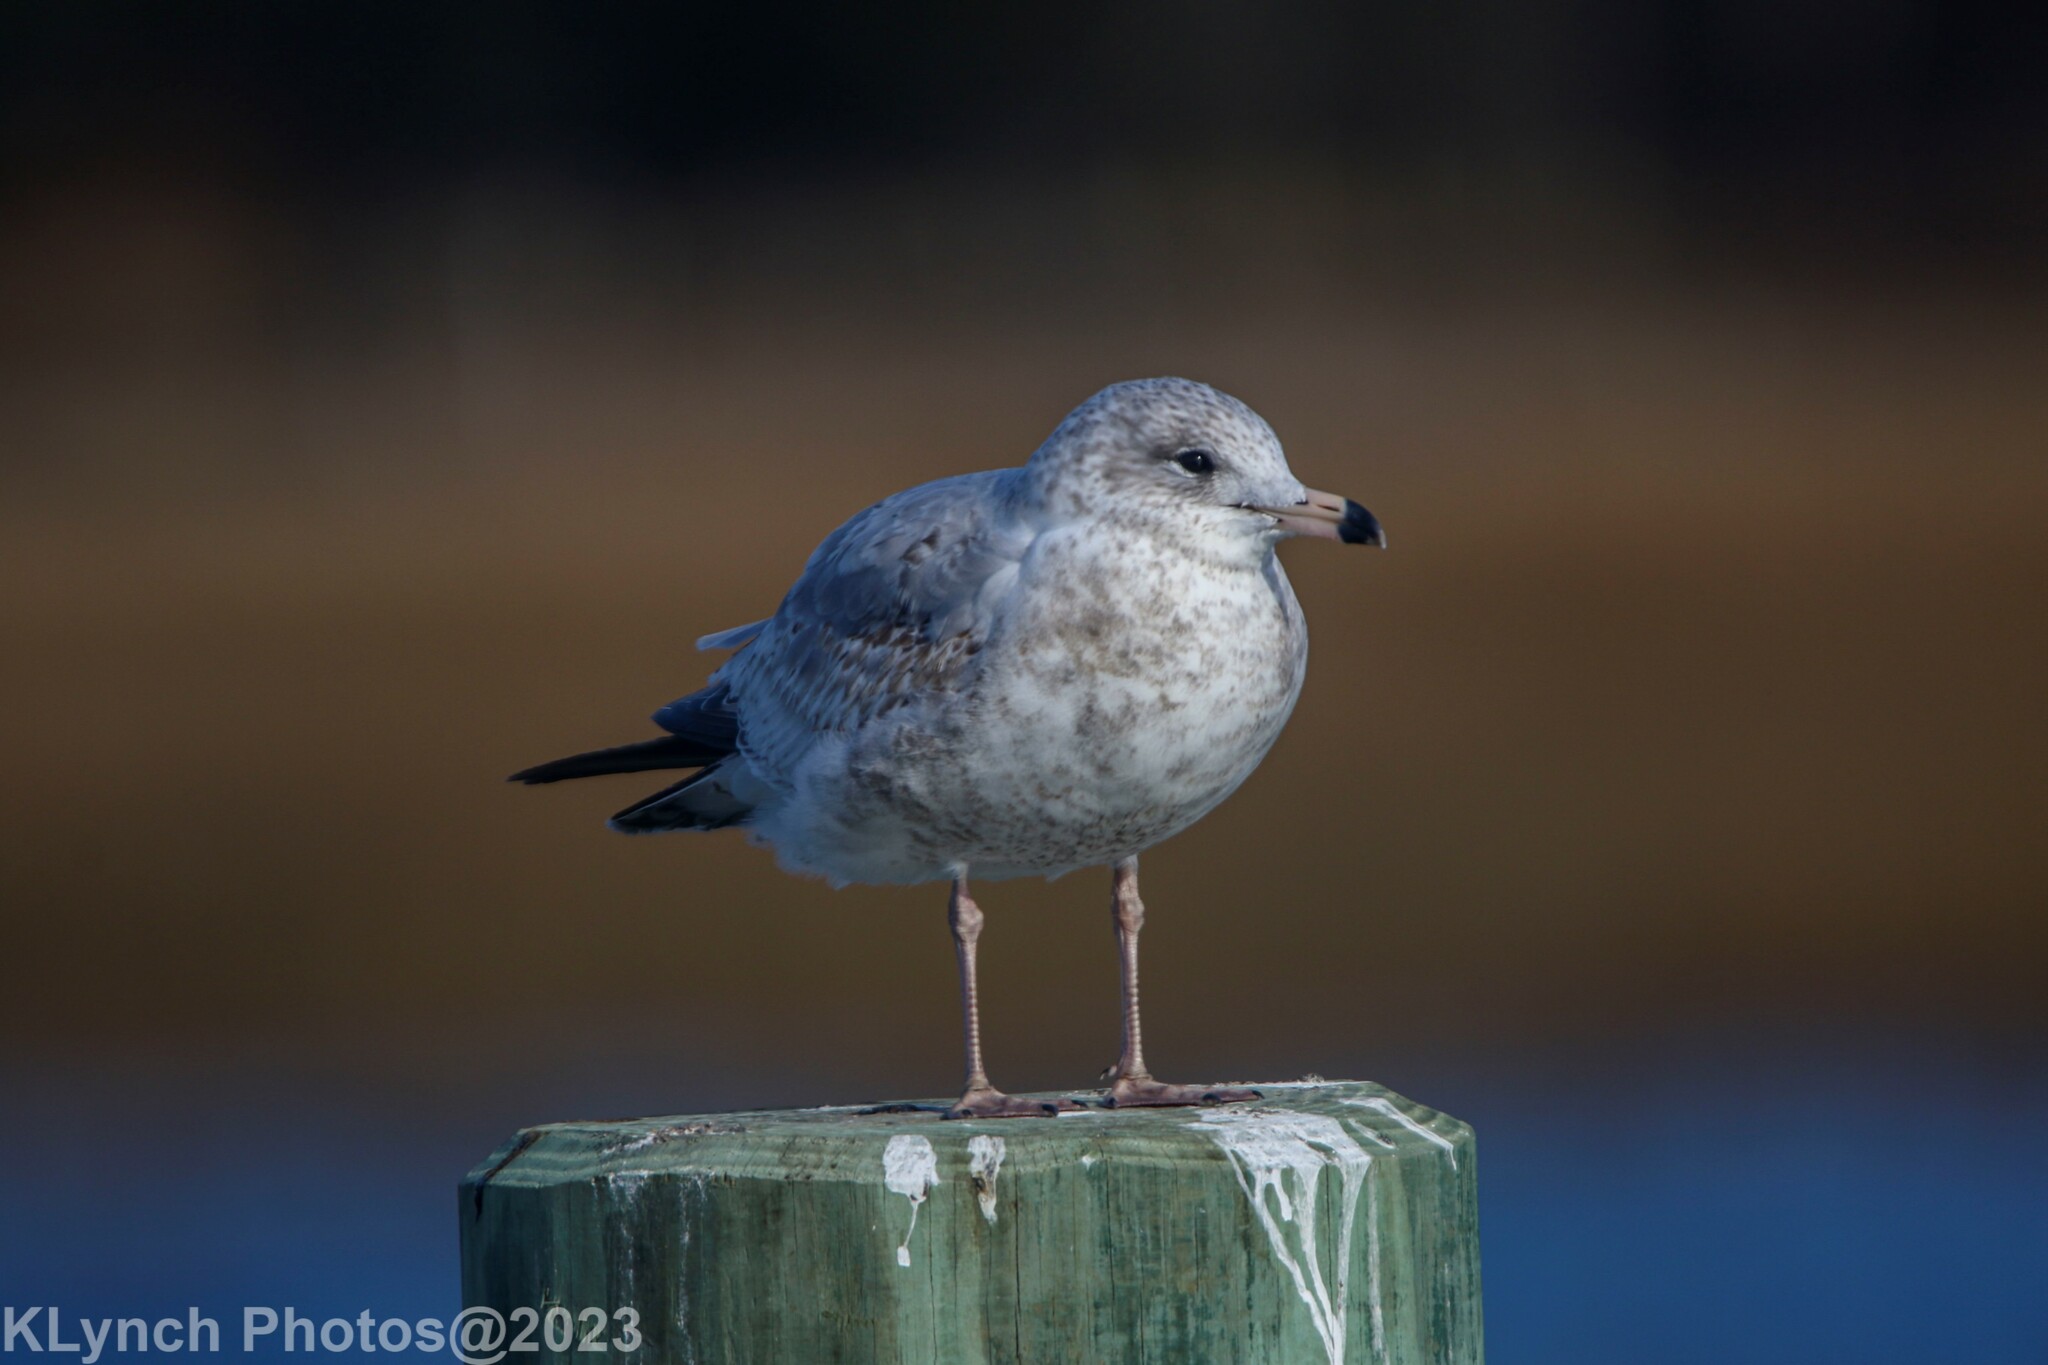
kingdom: Animalia
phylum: Chordata
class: Aves
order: Charadriiformes
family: Laridae
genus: Larus
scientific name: Larus delawarensis
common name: Ring-billed gull
